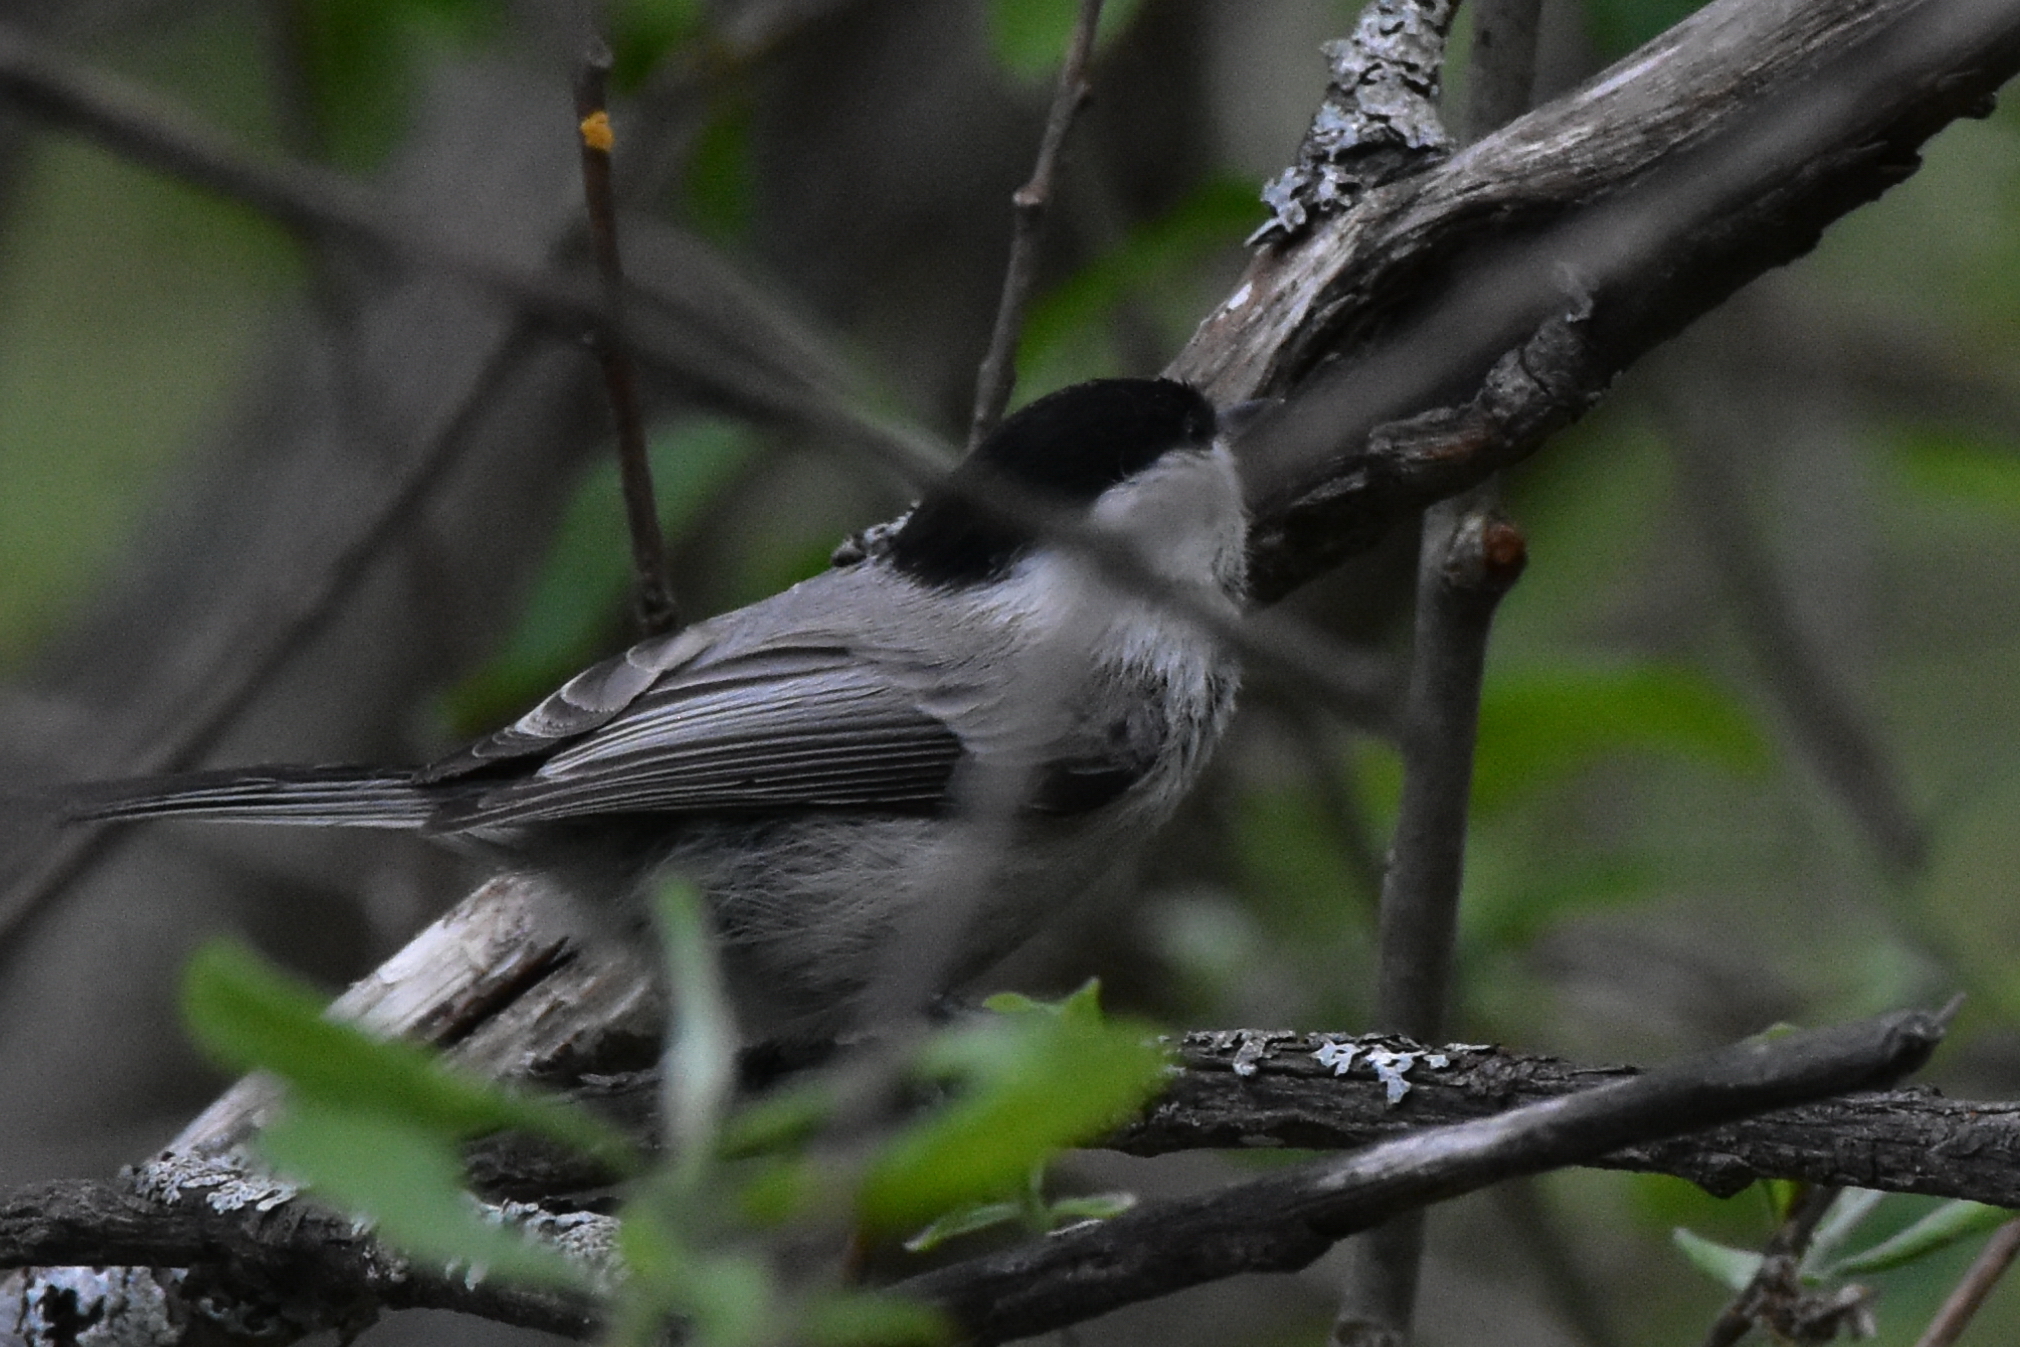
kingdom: Animalia
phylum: Chordata
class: Aves
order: Passeriformes
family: Paridae
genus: Poecile
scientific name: Poecile montanus
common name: Willow tit
